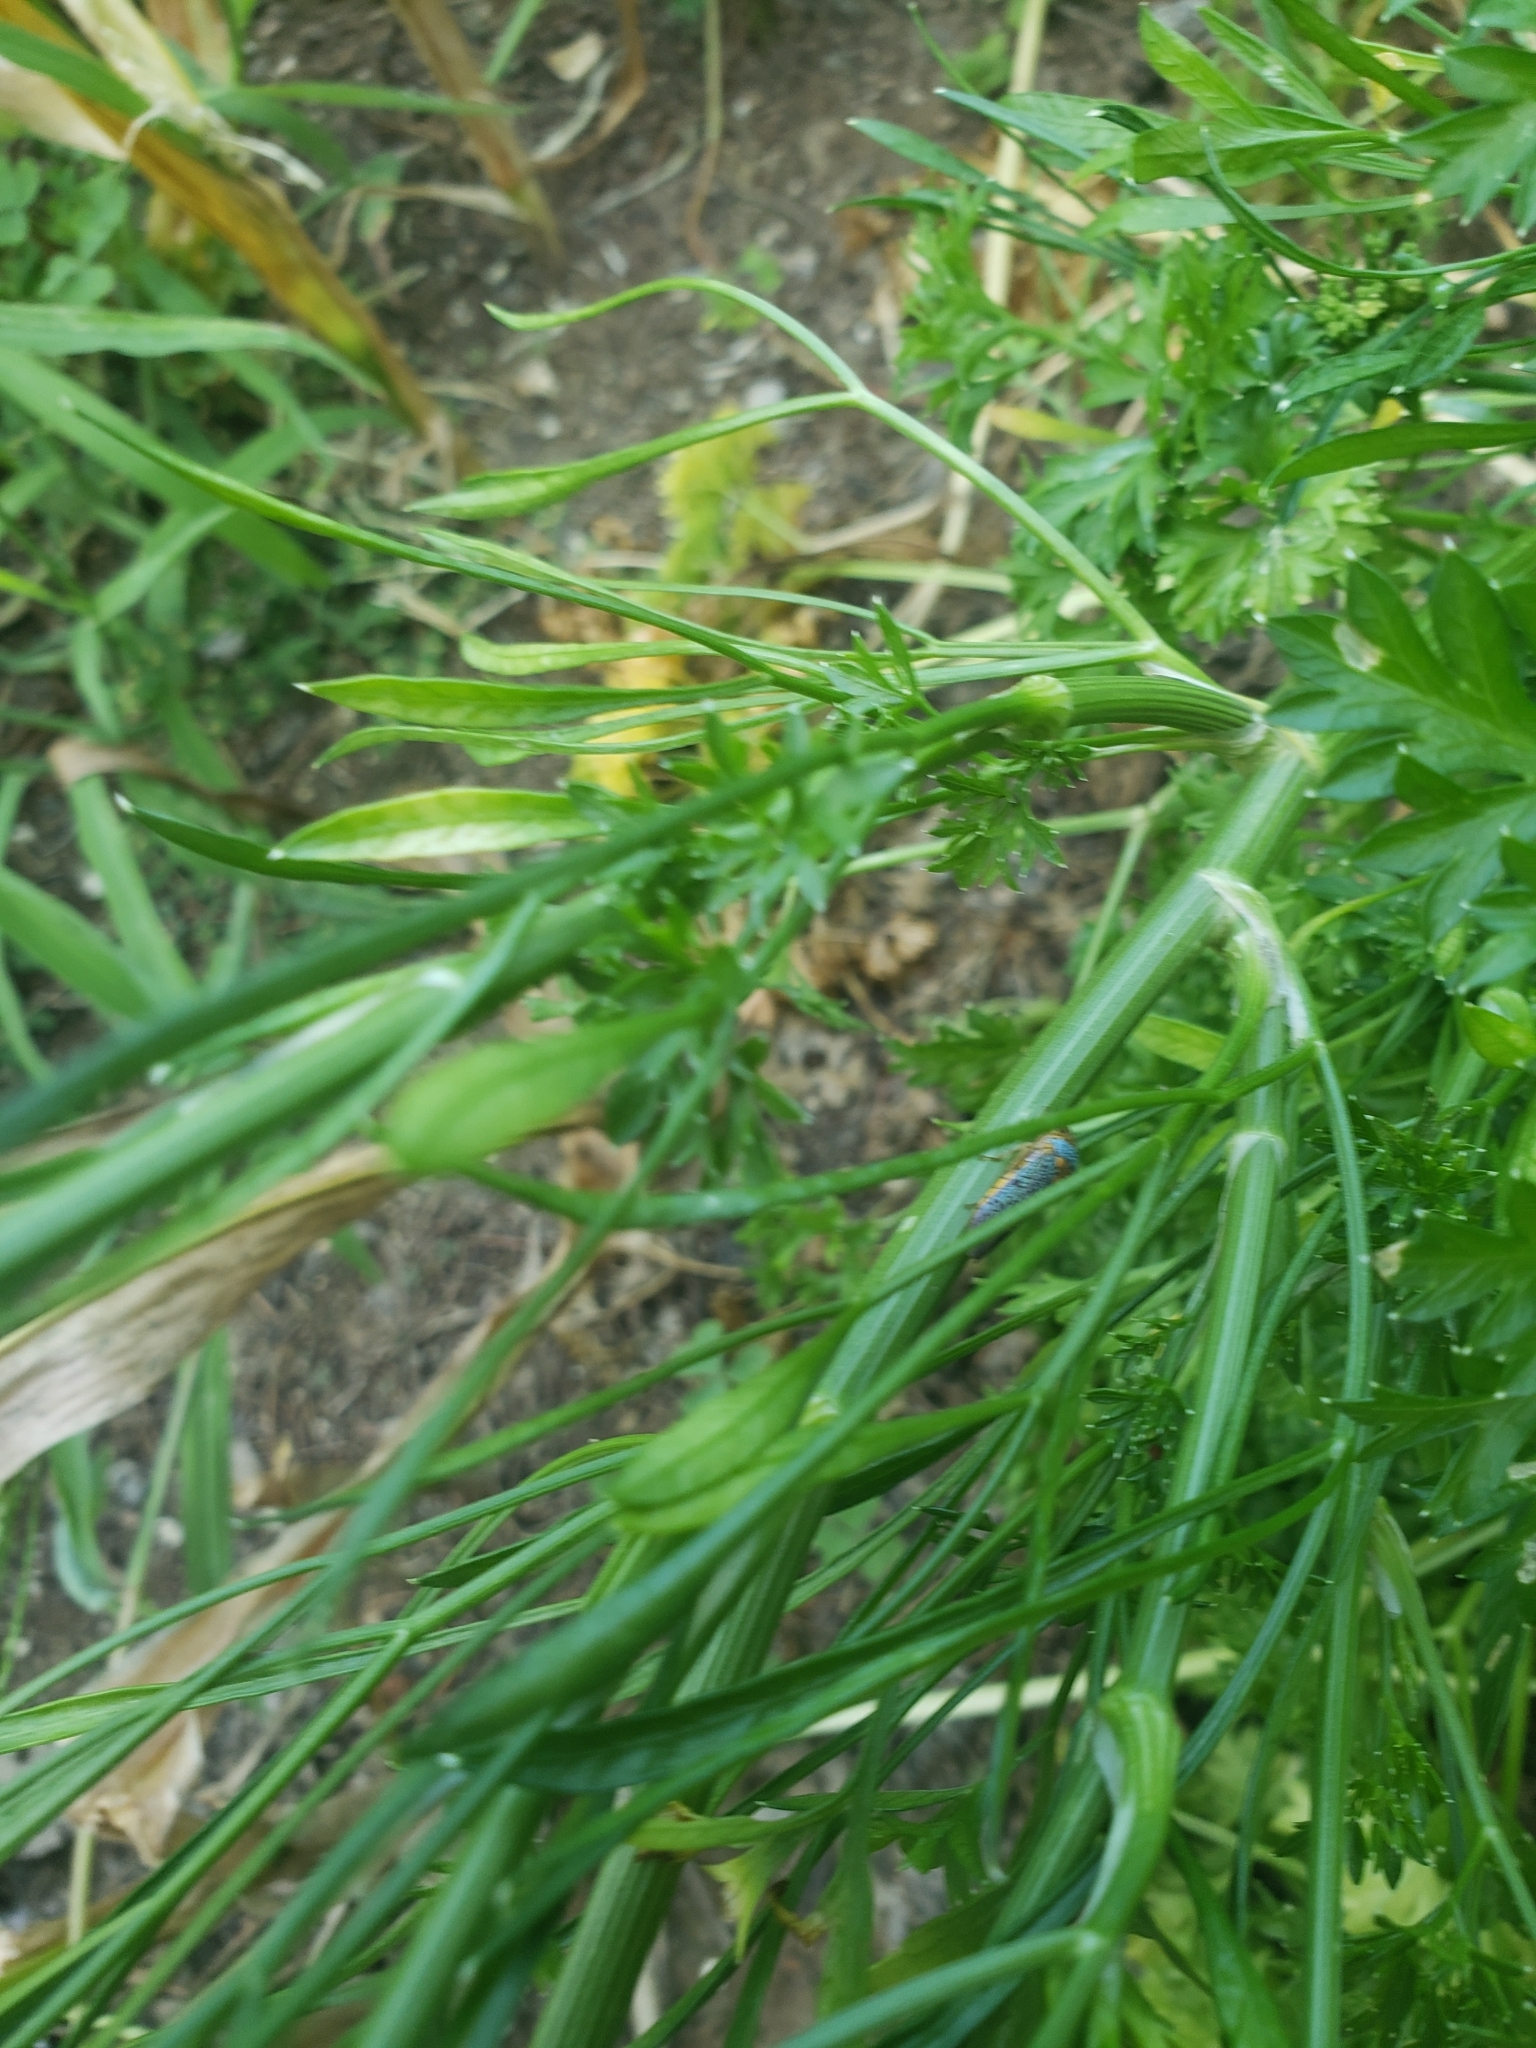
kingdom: Animalia
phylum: Arthropoda
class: Insecta
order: Hemiptera
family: Cicadellidae
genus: Oncometopia
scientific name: Oncometopia orbona
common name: Broad-headed sharpshooter
